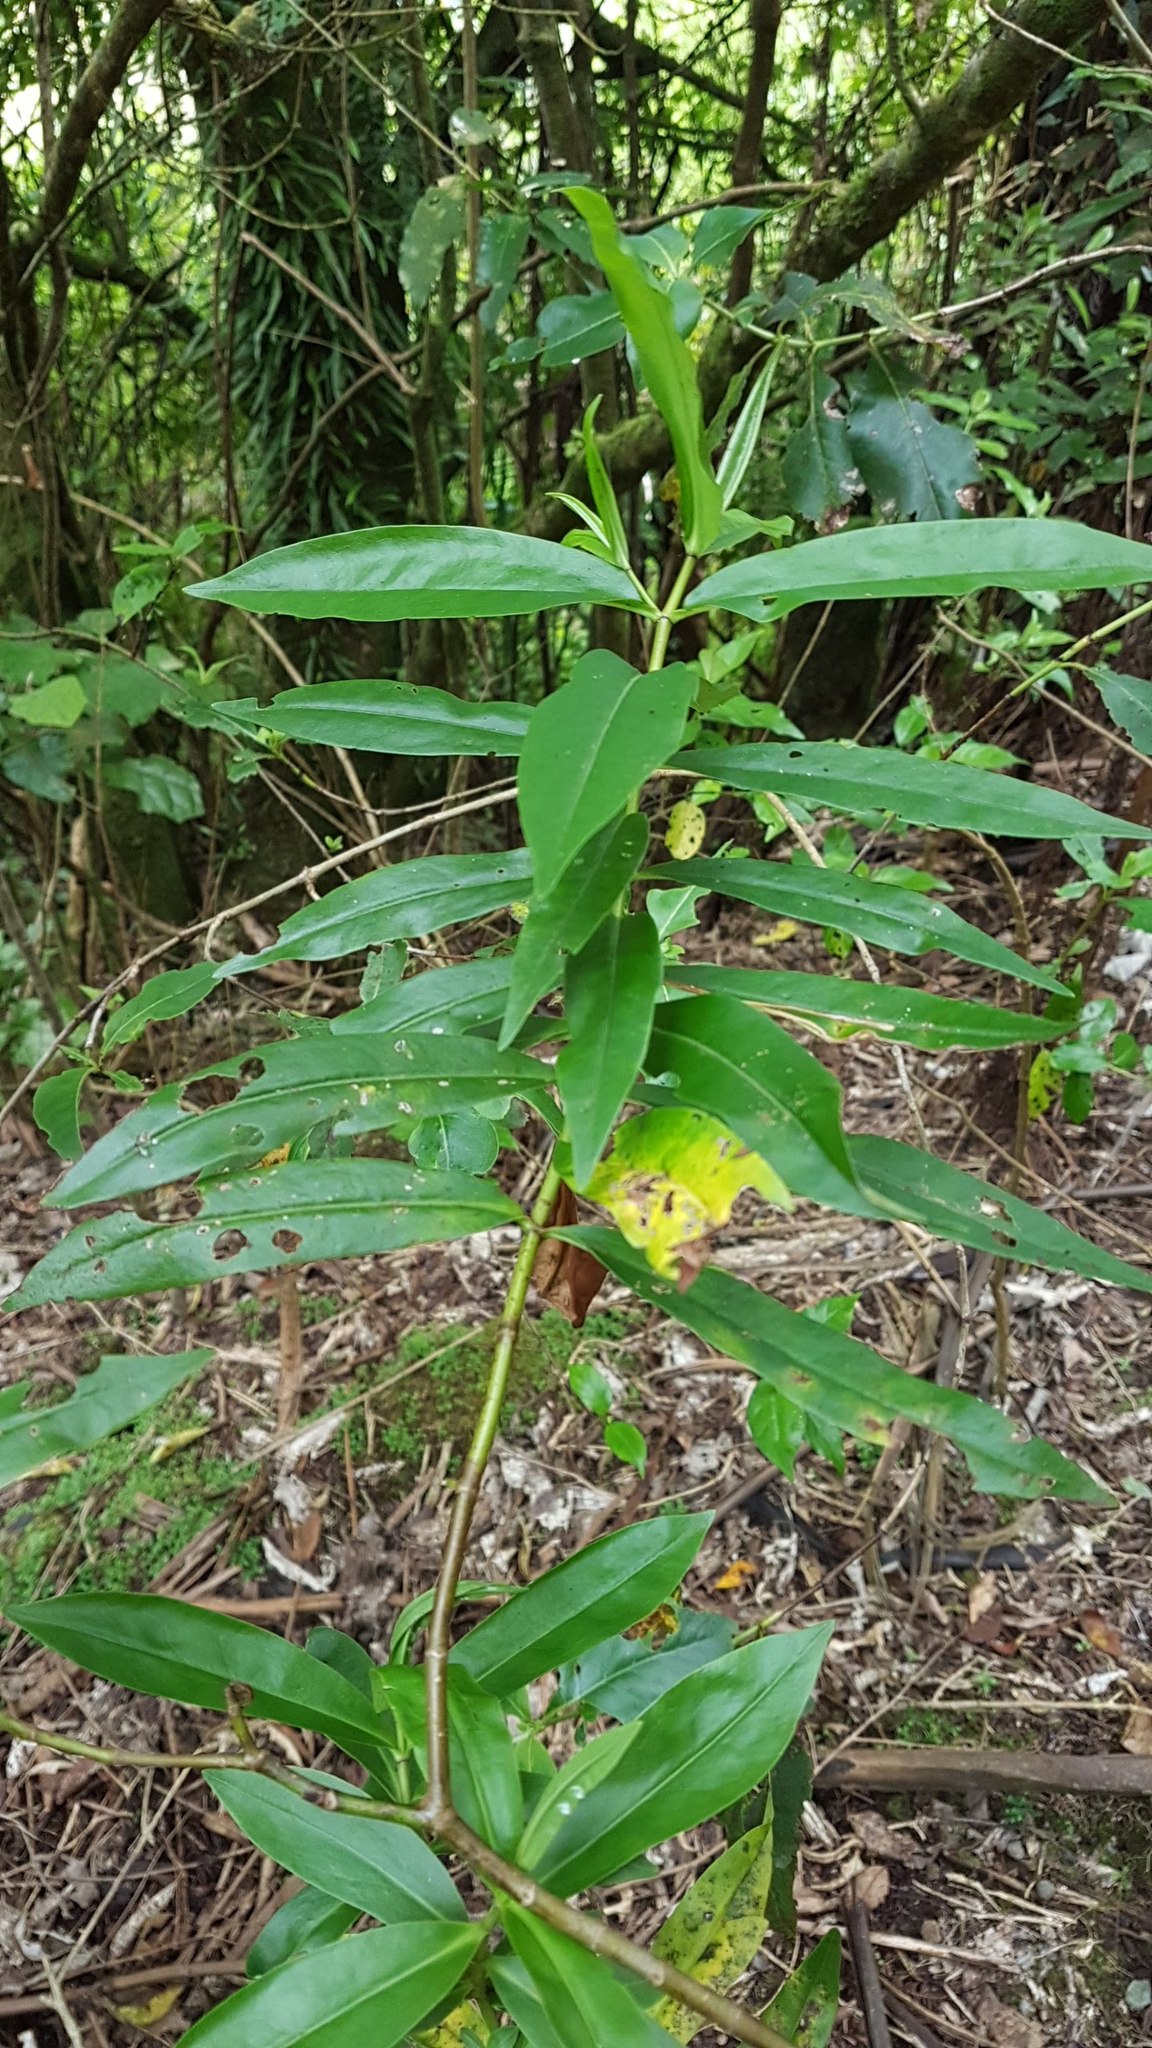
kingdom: Plantae
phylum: Tracheophyta
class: Magnoliopsida
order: Lamiales
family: Plantaginaceae
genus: Veronica
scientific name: Veronica stricta
